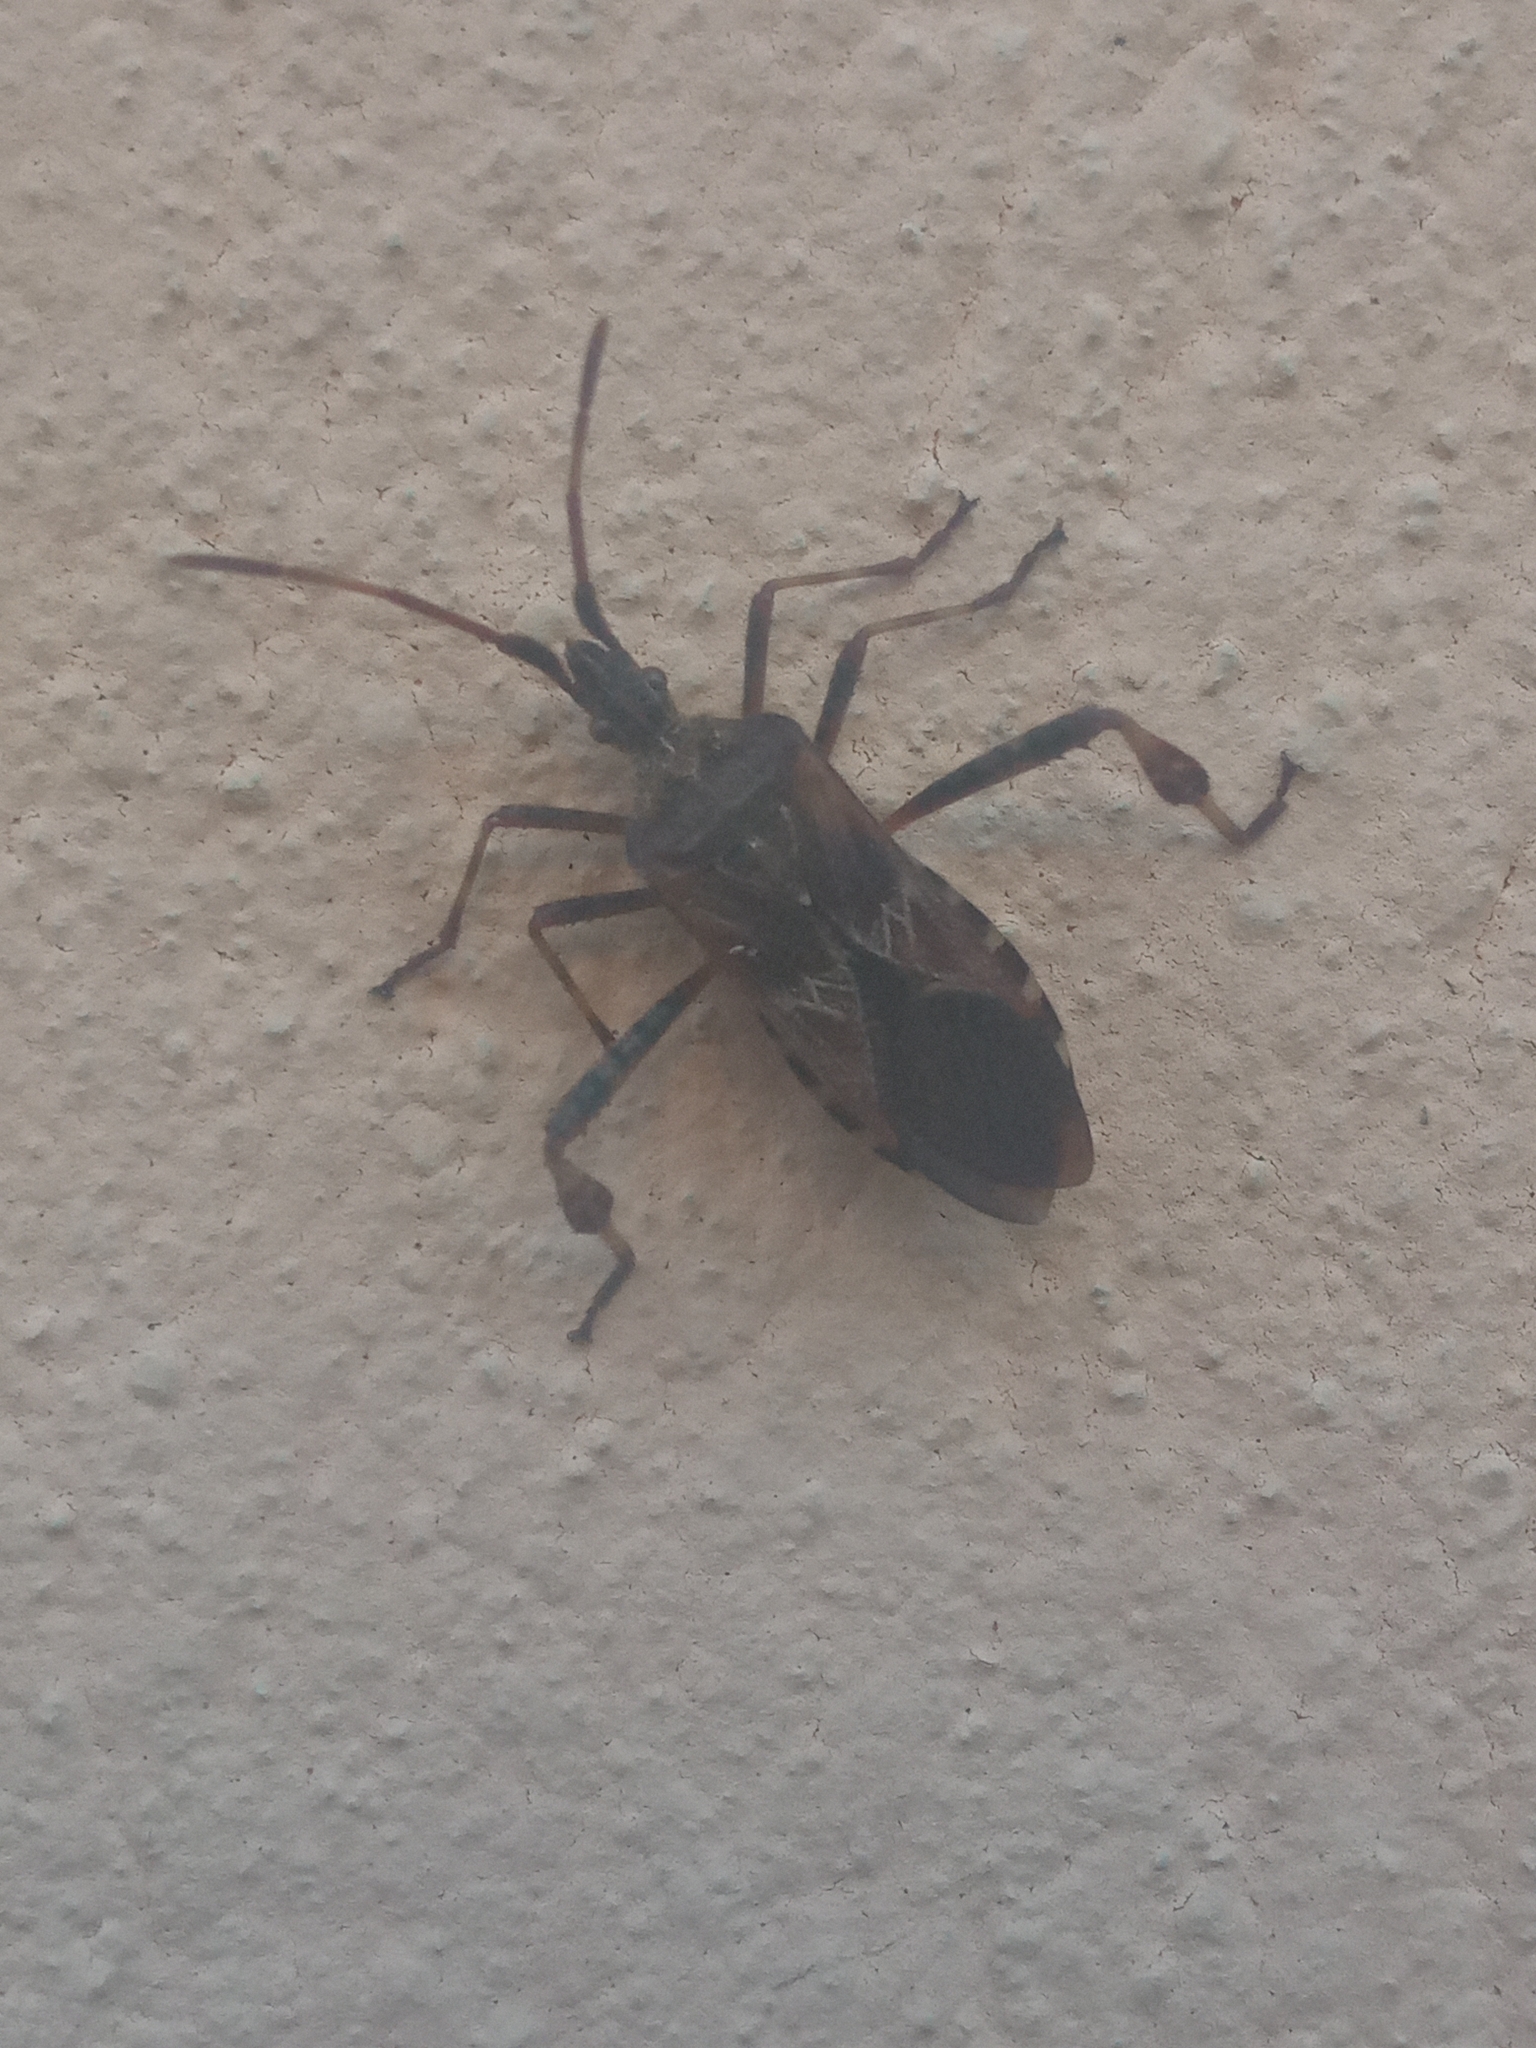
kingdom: Animalia
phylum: Arthropoda
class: Insecta
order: Hemiptera
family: Coreidae
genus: Leptoglossus
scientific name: Leptoglossus occidentalis
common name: Western conifer-seed bug
